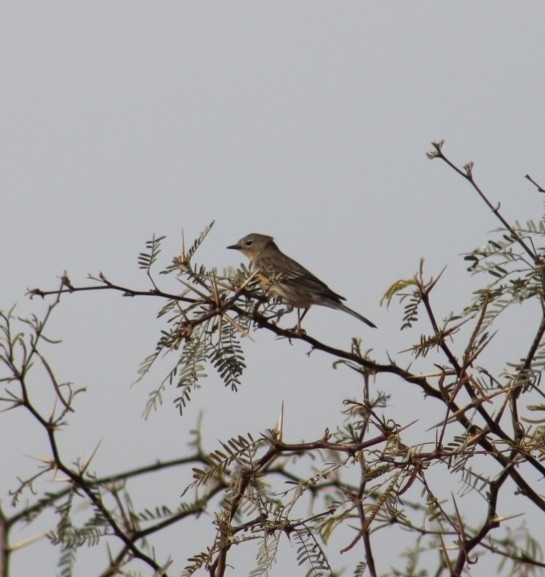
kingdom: Animalia
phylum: Chordata
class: Aves
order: Passeriformes
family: Parulidae
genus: Setophaga
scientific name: Setophaga coronata
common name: Myrtle warbler
